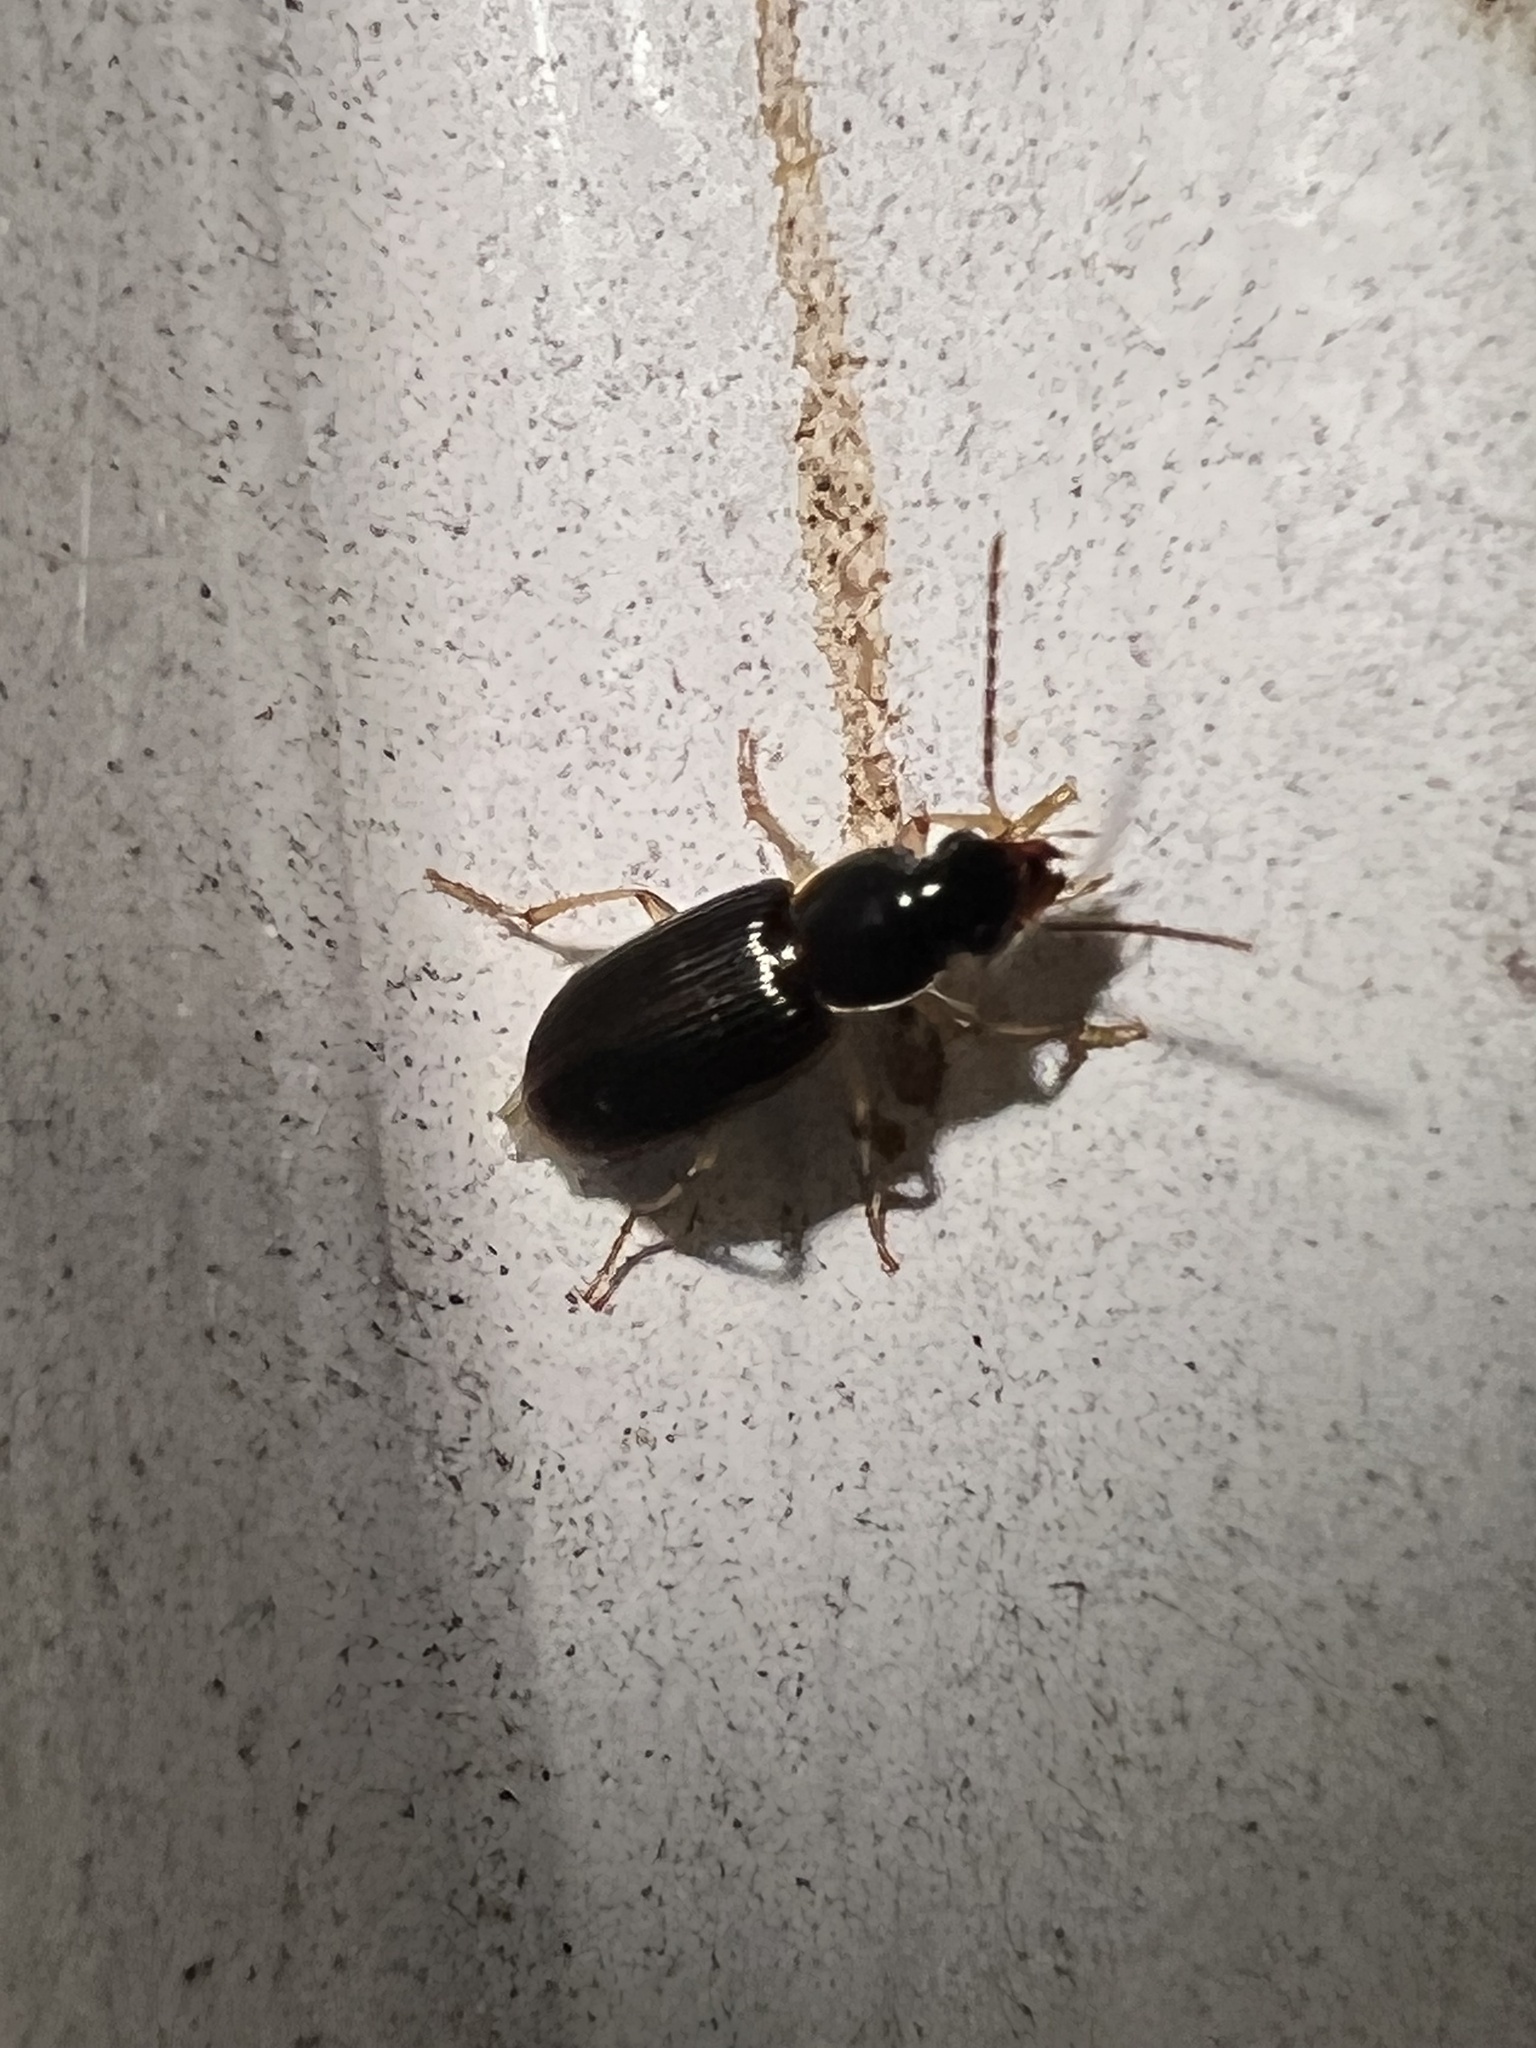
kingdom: Animalia
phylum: Arthropoda
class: Insecta
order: Coleoptera
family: Carabidae
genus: Stenolophus
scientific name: Stenolophus ochropezus
